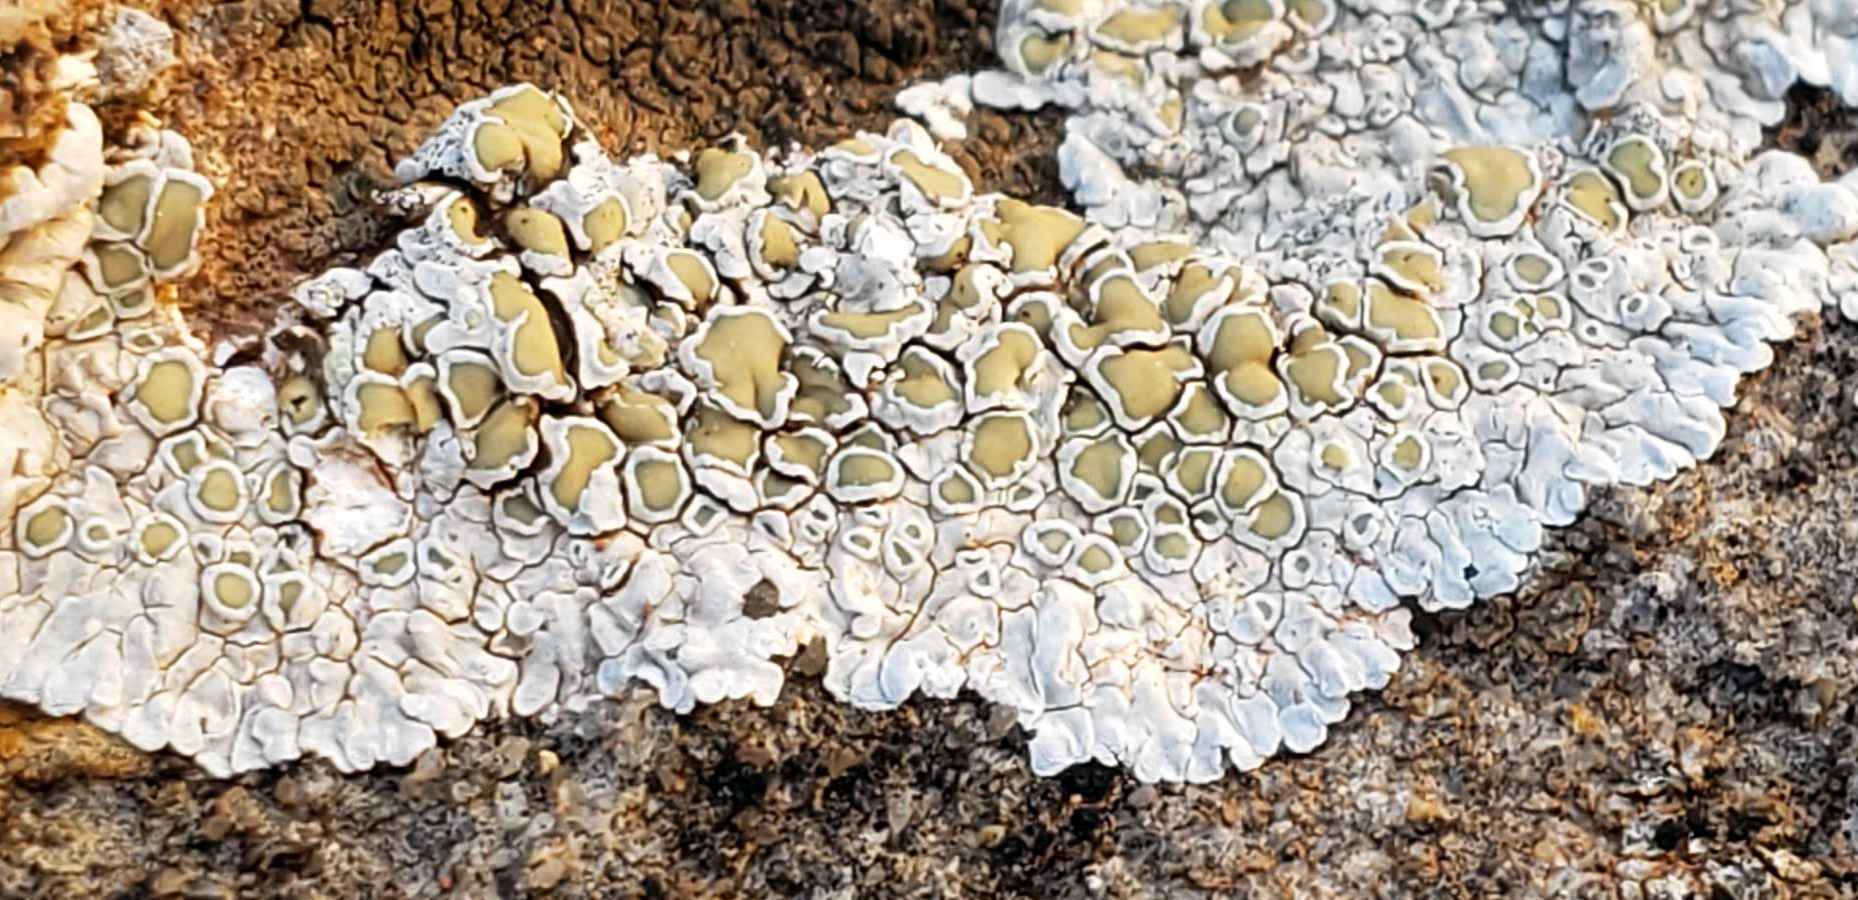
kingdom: Fungi
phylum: Ascomycota
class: Lecanoromycetes
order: Lecanorales
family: Lecanoraceae
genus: Lecanora
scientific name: Lecanora valesiaca
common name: Valois rim-lichen
